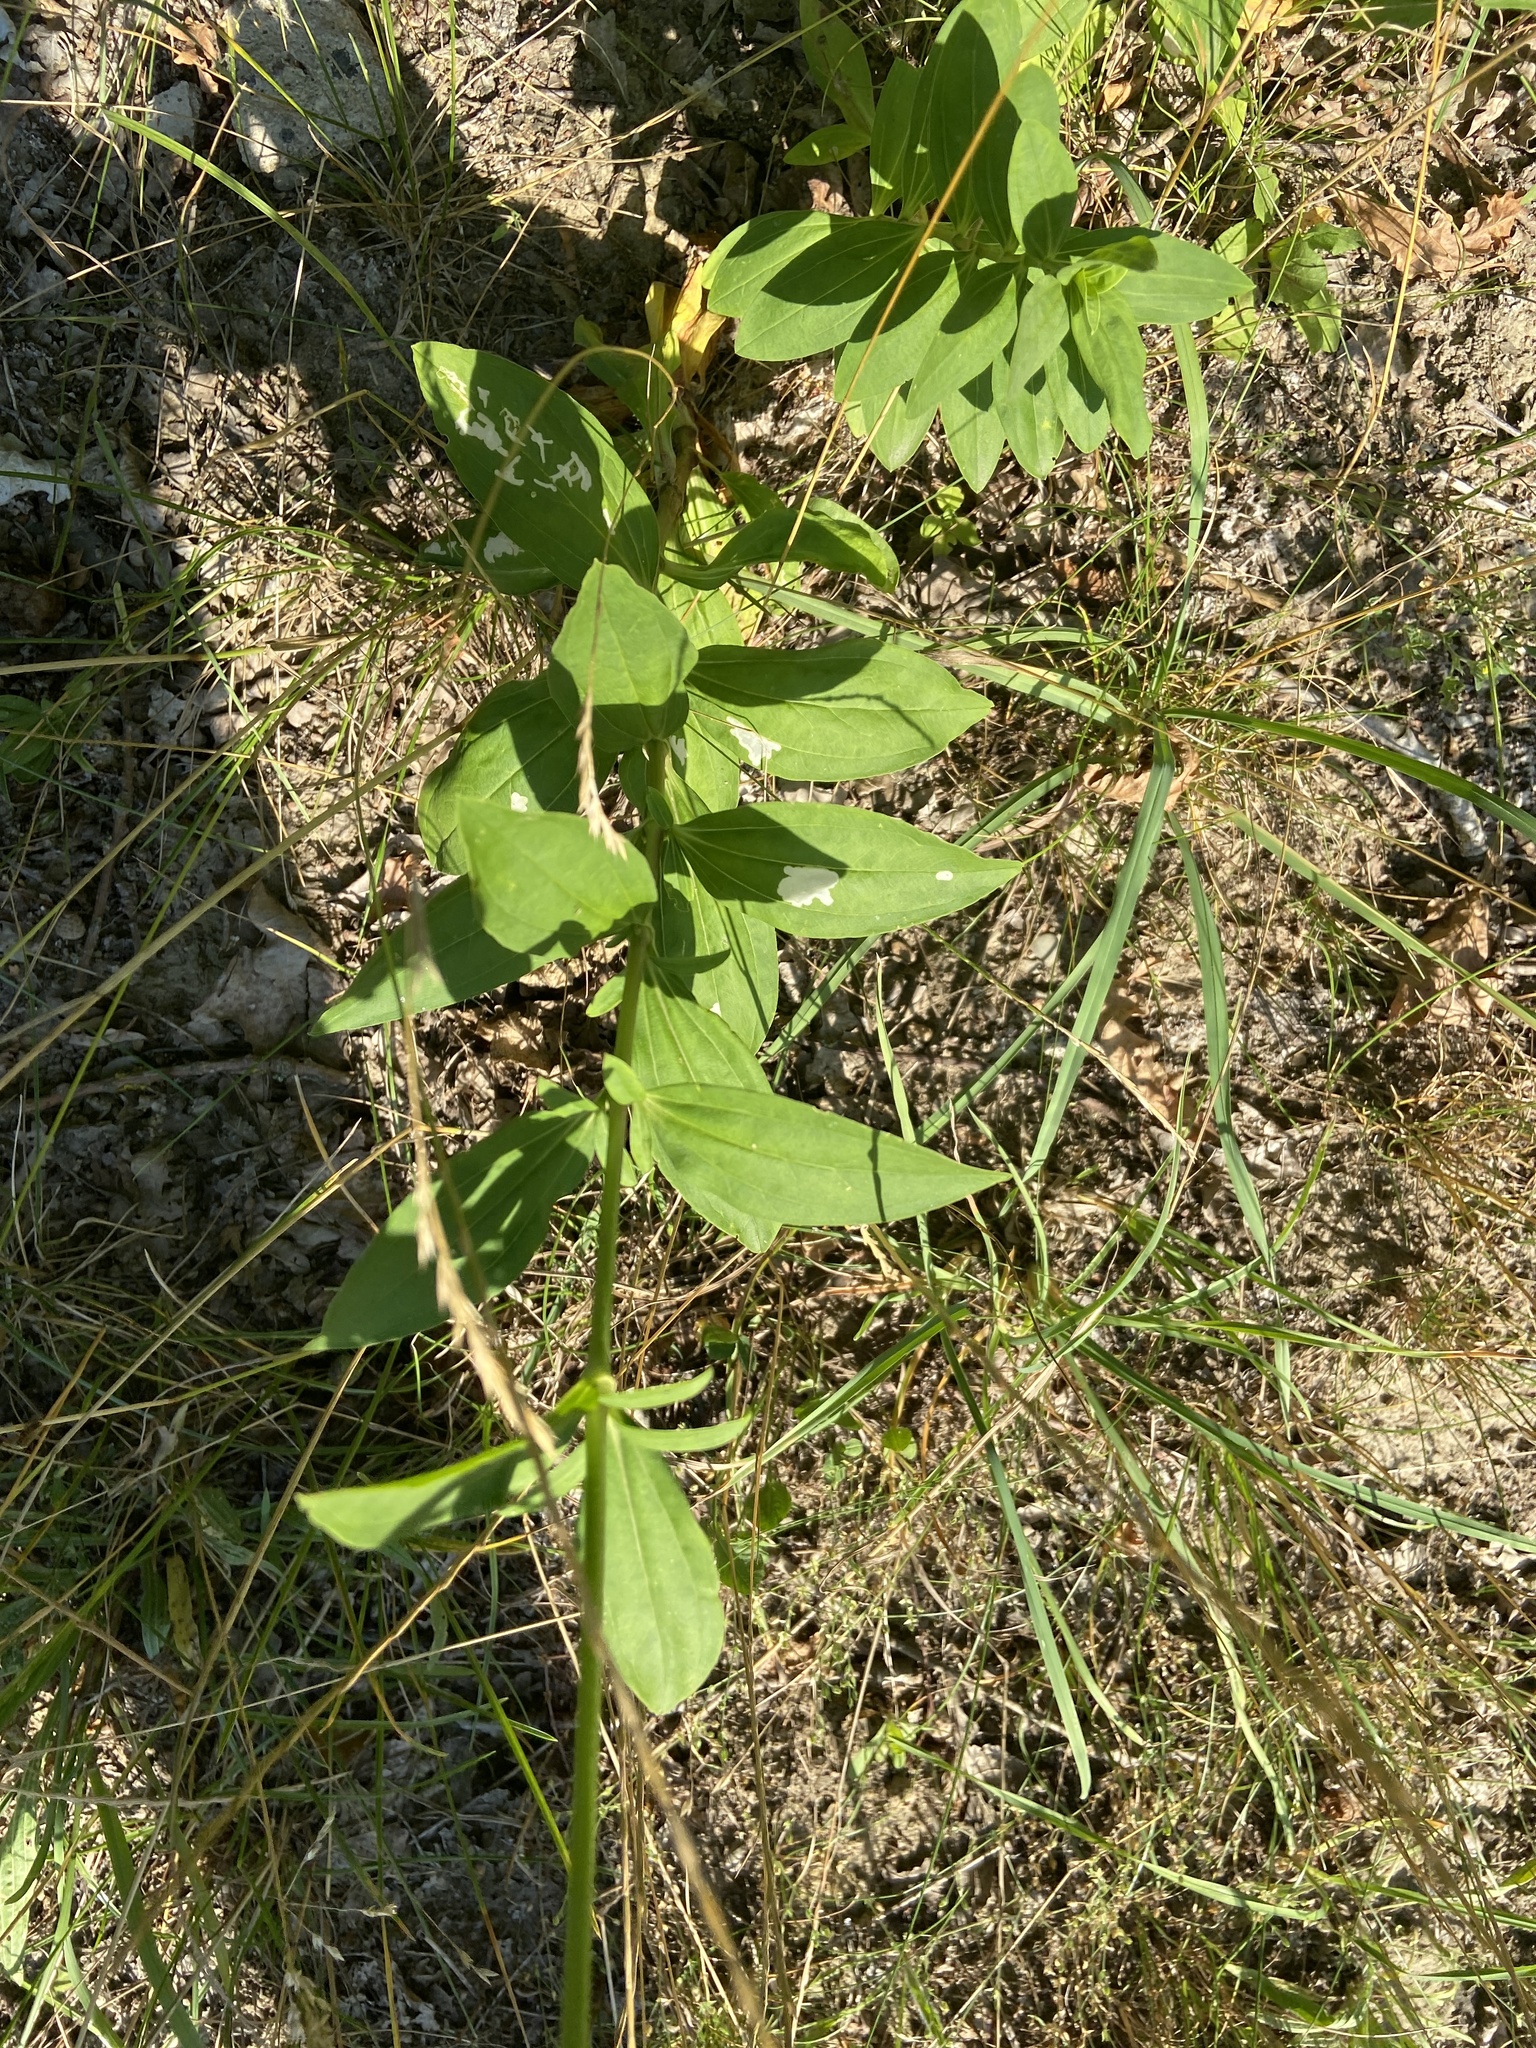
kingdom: Plantae
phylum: Tracheophyta
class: Magnoliopsida
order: Caryophyllales
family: Caryophyllaceae
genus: Saponaria
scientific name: Saponaria officinalis
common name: Soapwort
